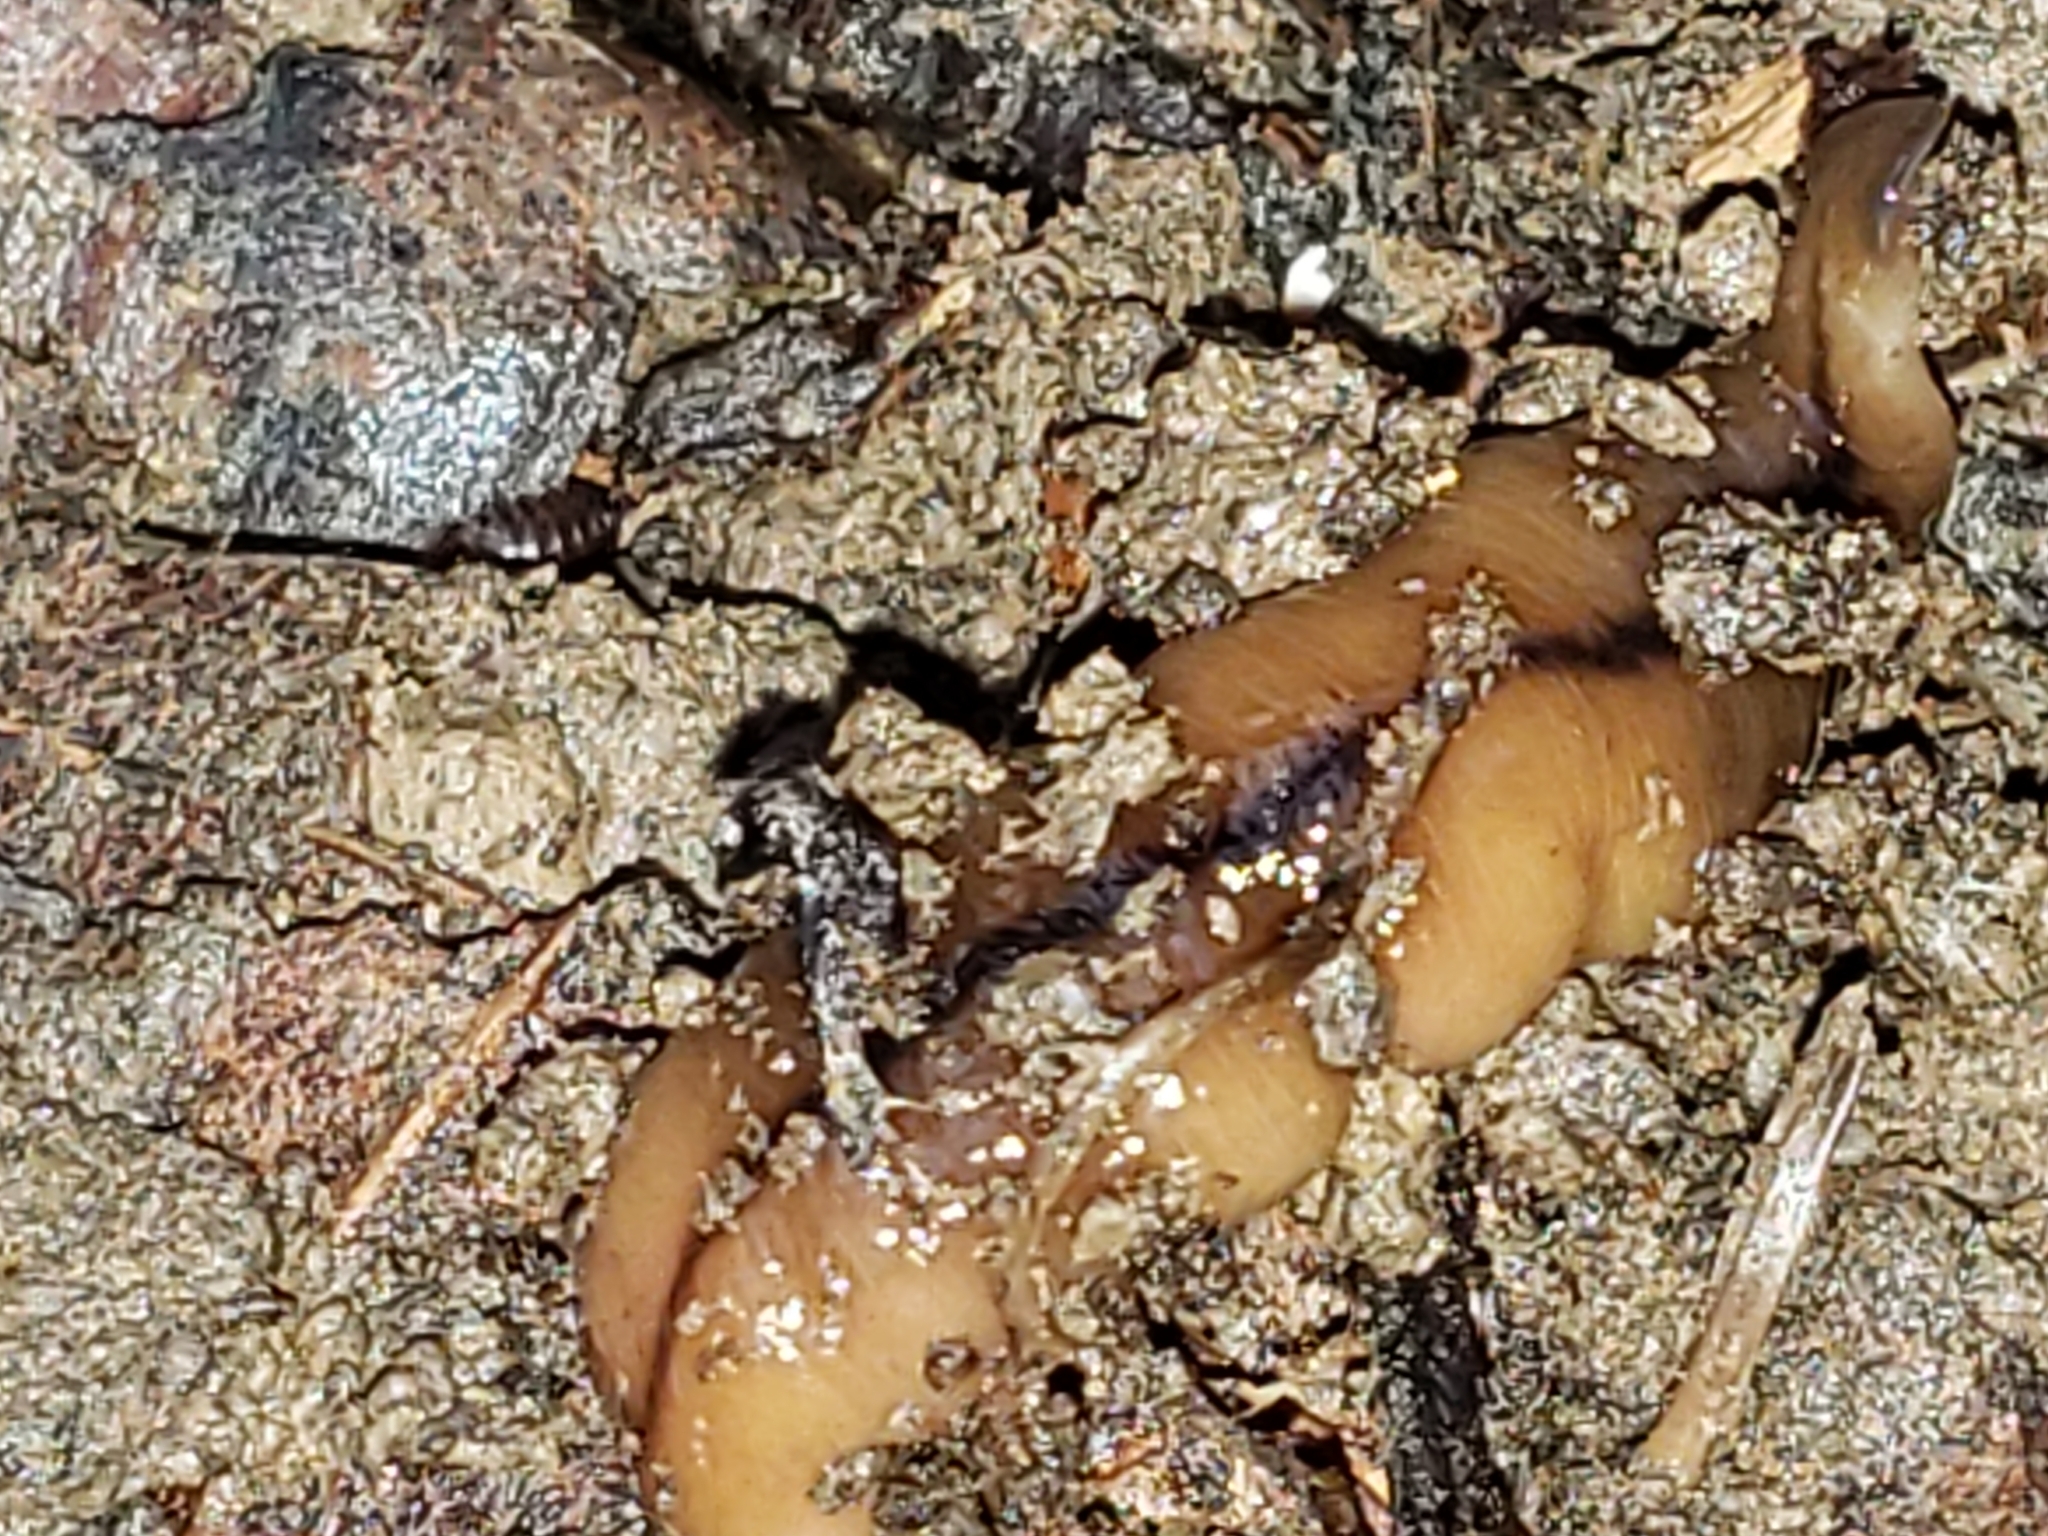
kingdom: Animalia
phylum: Platyhelminthes
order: Tricladida
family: Geoplanidae
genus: Bipalium
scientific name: Bipalium adventitium
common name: Land planarian
